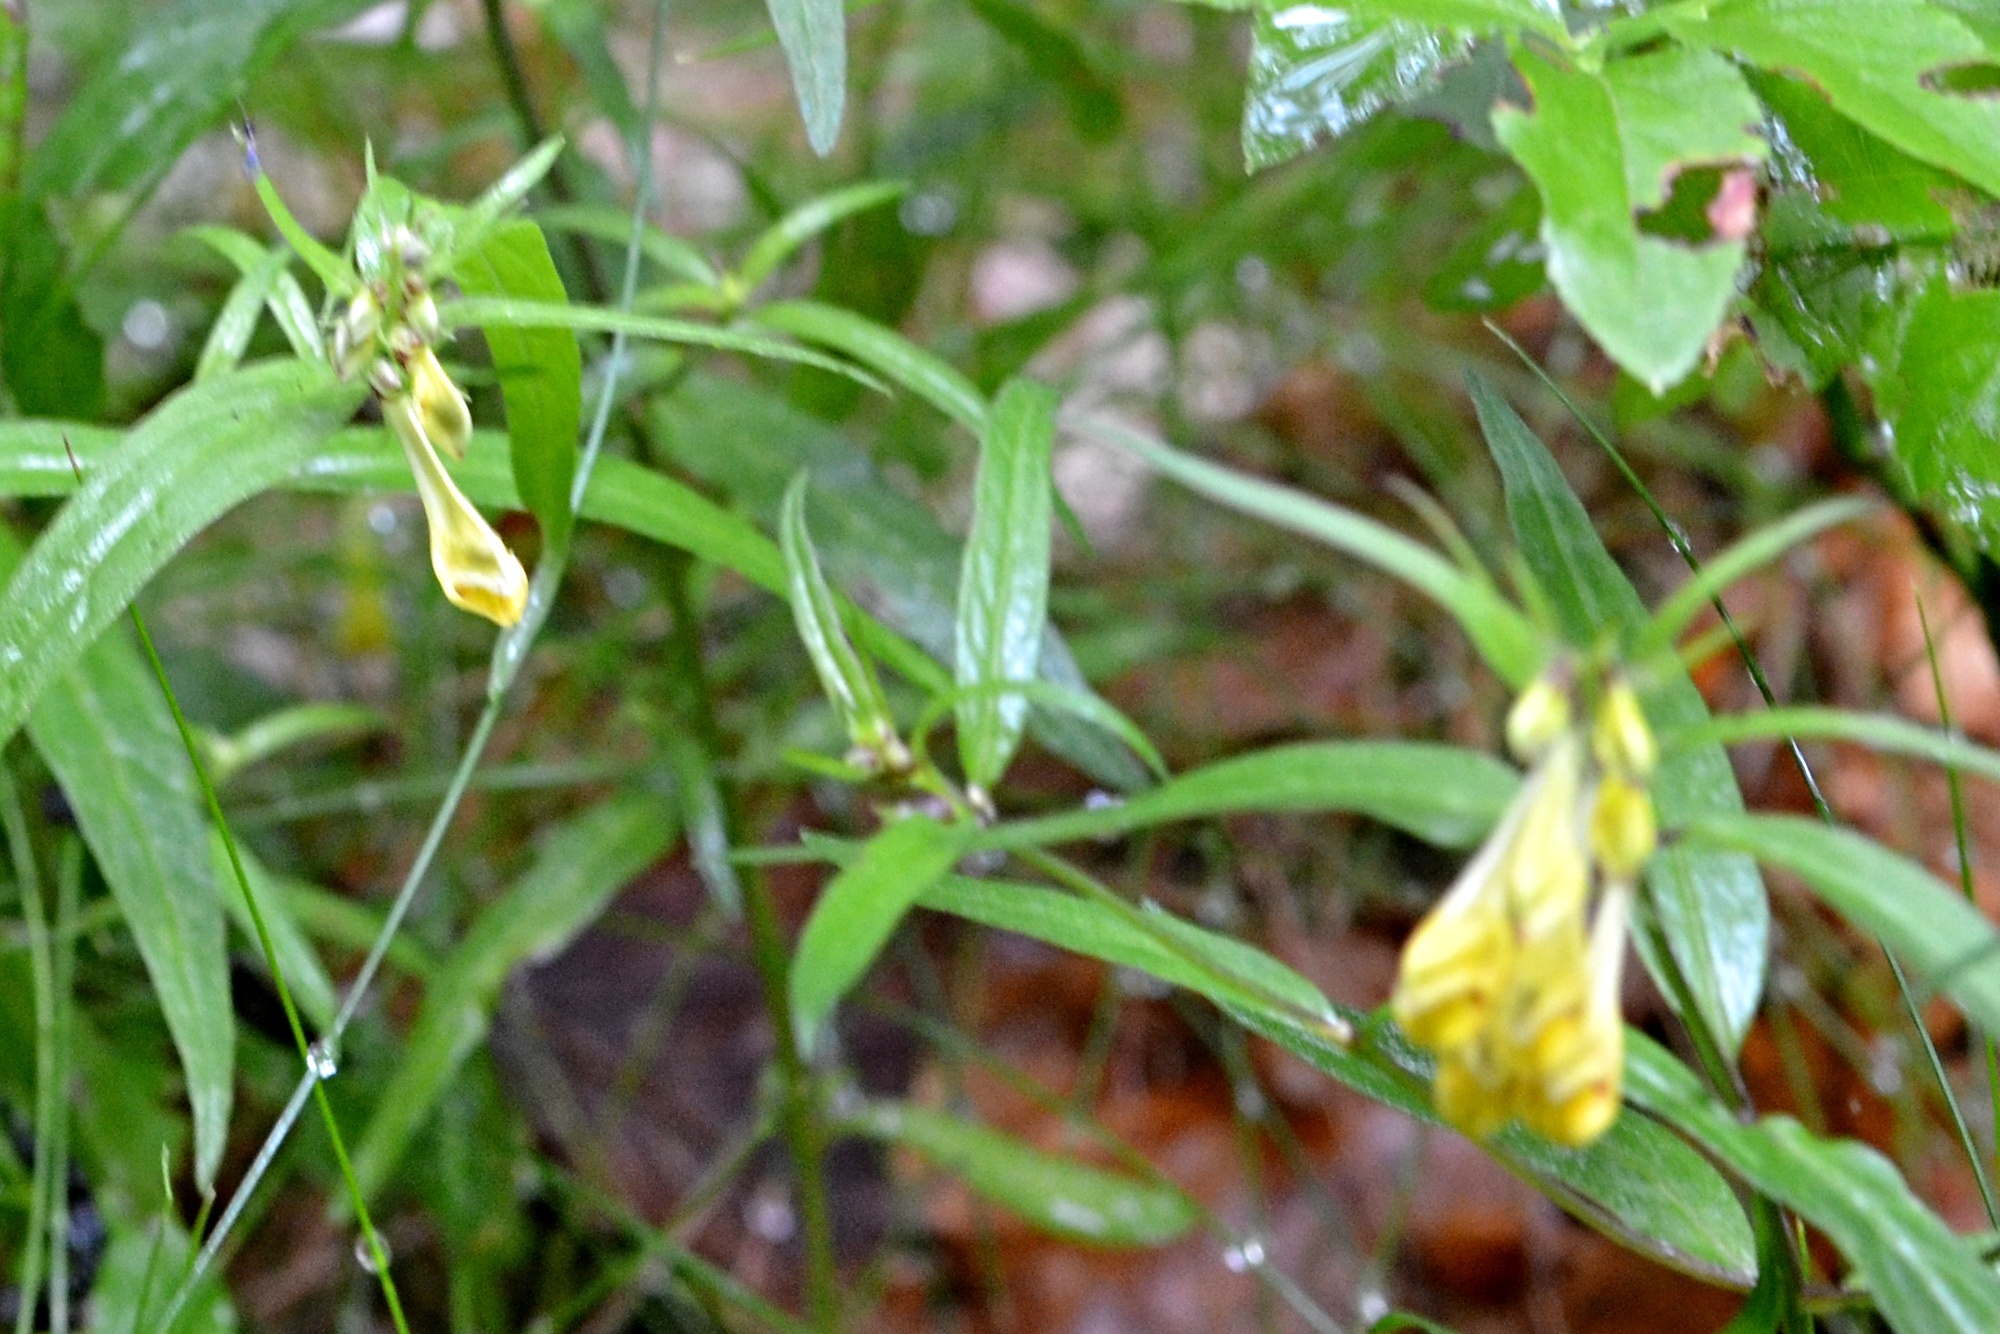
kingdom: Plantae
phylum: Tracheophyta
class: Magnoliopsida
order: Lamiales
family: Orobanchaceae
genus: Melampyrum
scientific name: Melampyrum pratense
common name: Common cow-wheat
